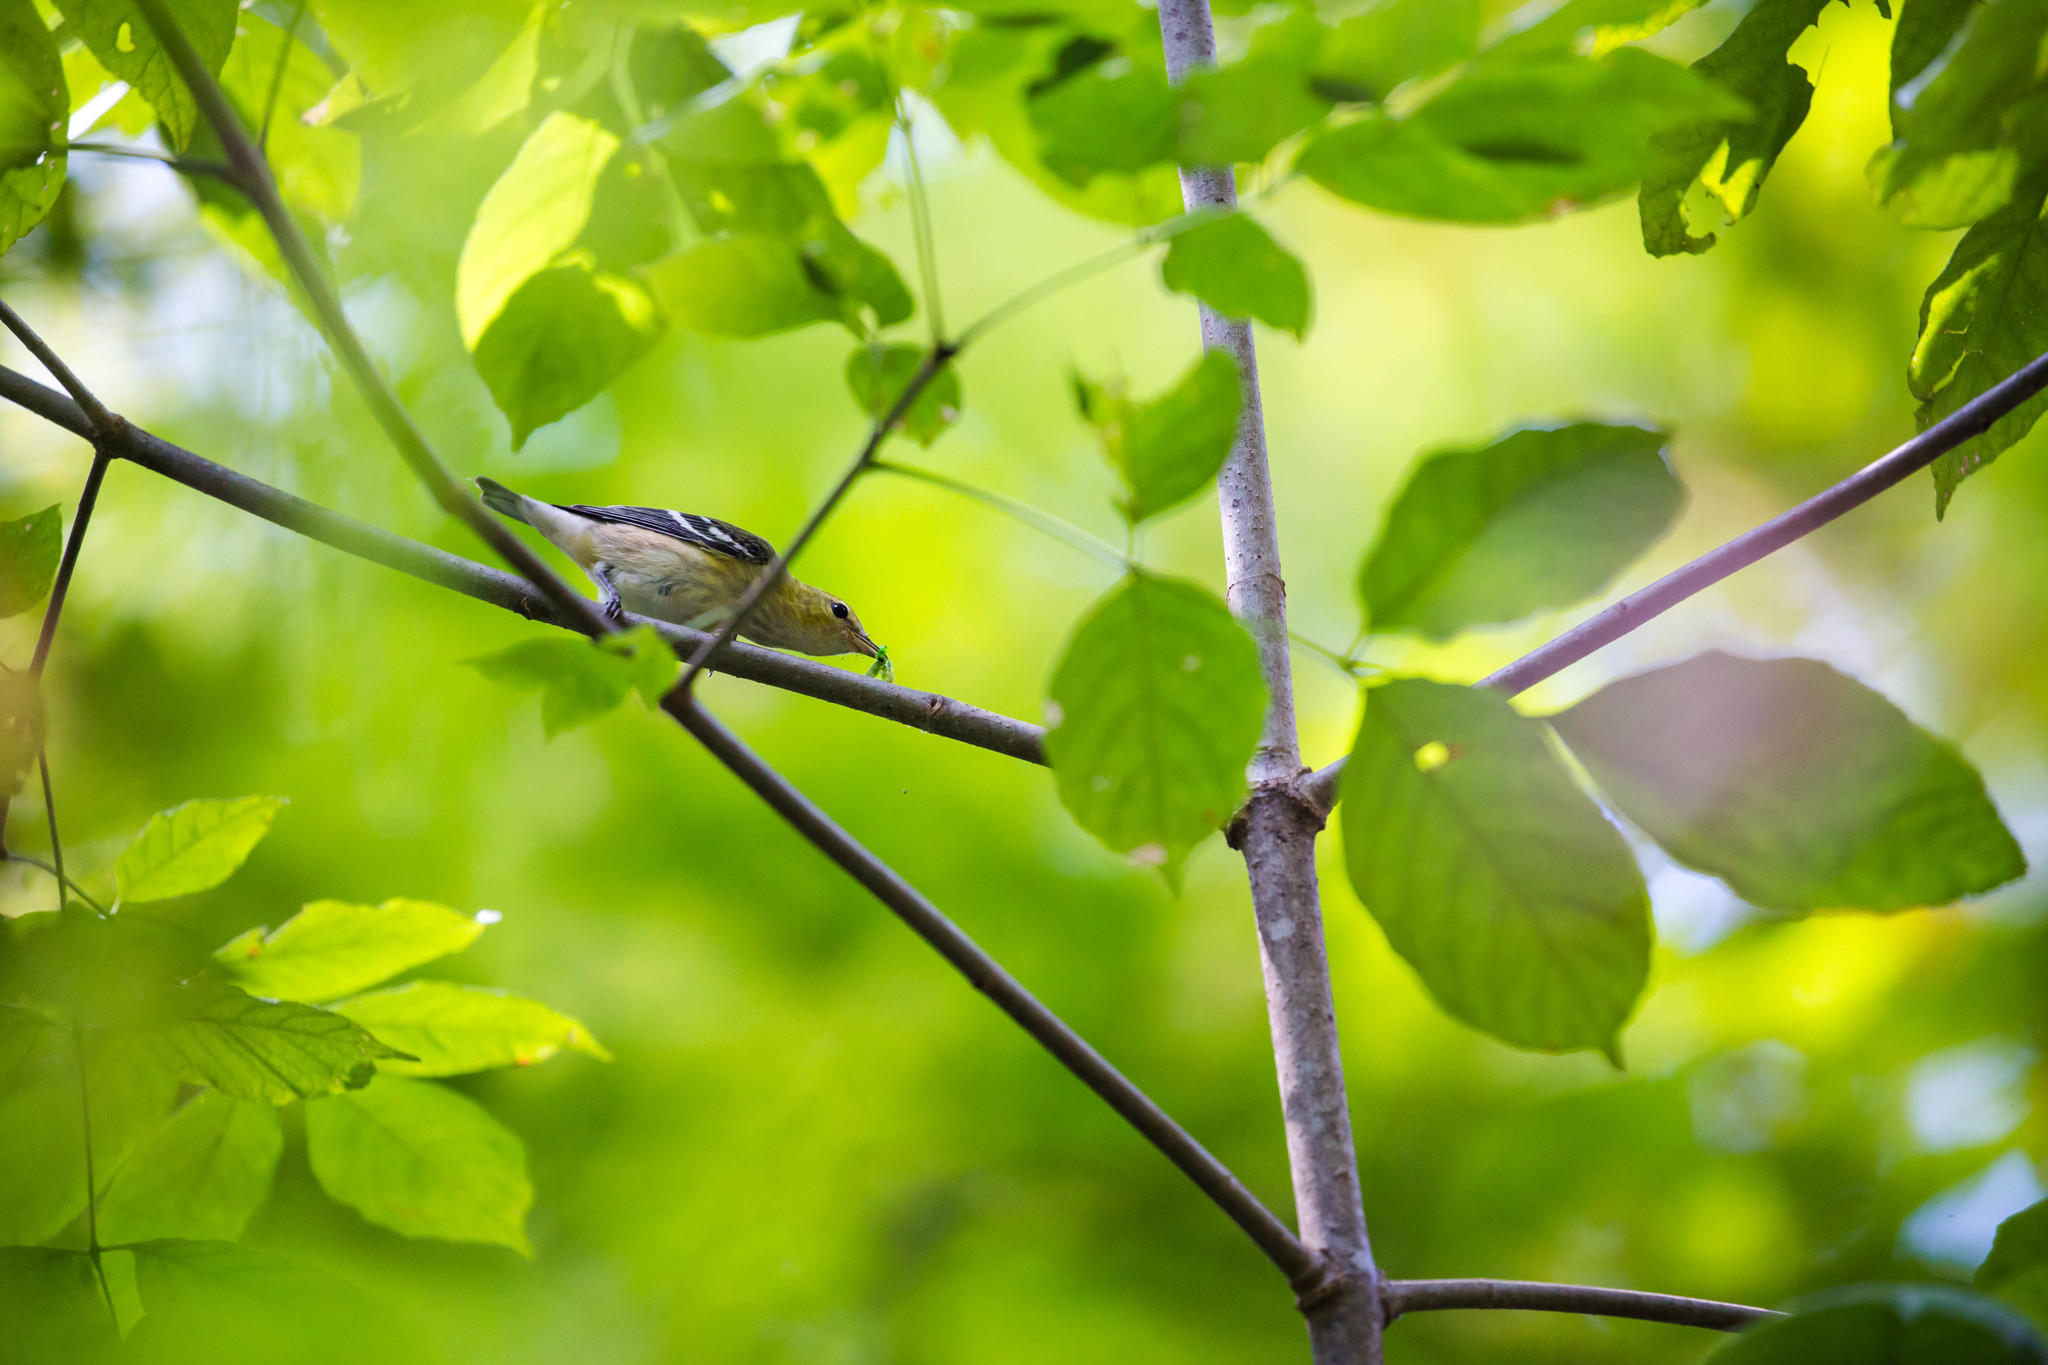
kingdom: Animalia
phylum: Chordata
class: Aves
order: Passeriformes
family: Parulidae
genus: Setophaga
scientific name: Setophaga castanea
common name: Bay-breasted warbler
